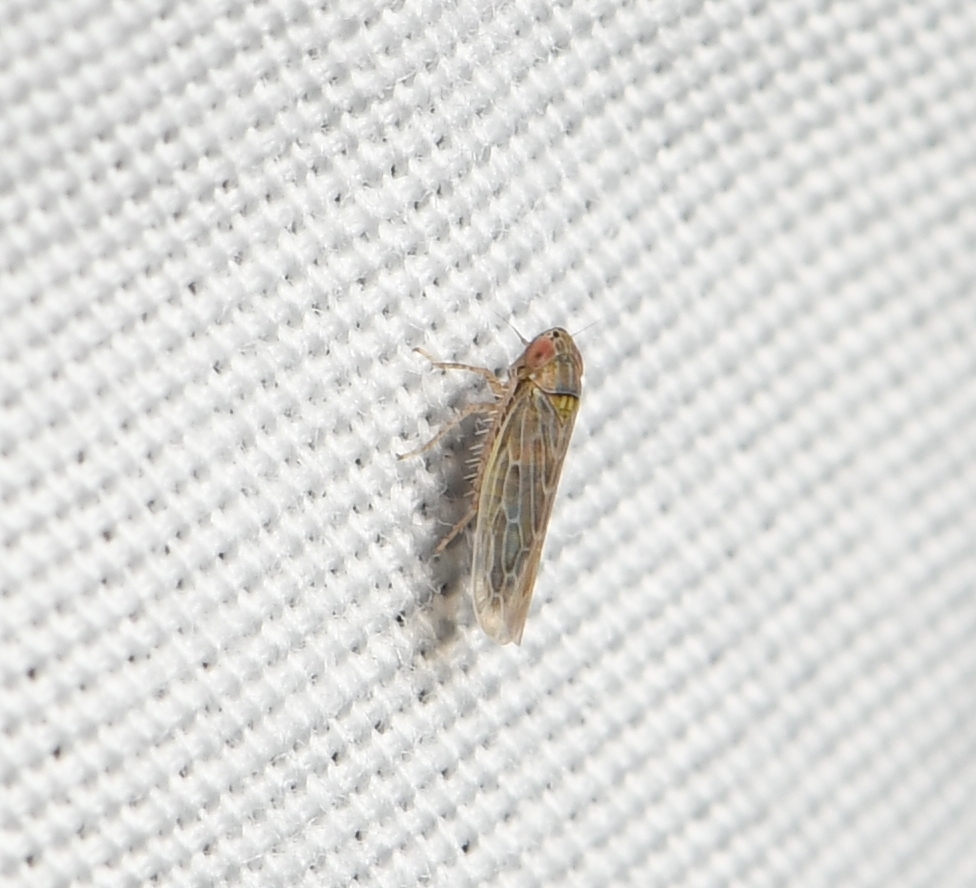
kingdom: Animalia
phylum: Arthropoda
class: Insecta
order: Hemiptera
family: Cicadellidae
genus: Graminella
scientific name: Graminella sonora
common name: Lesser lawn leafhopper
